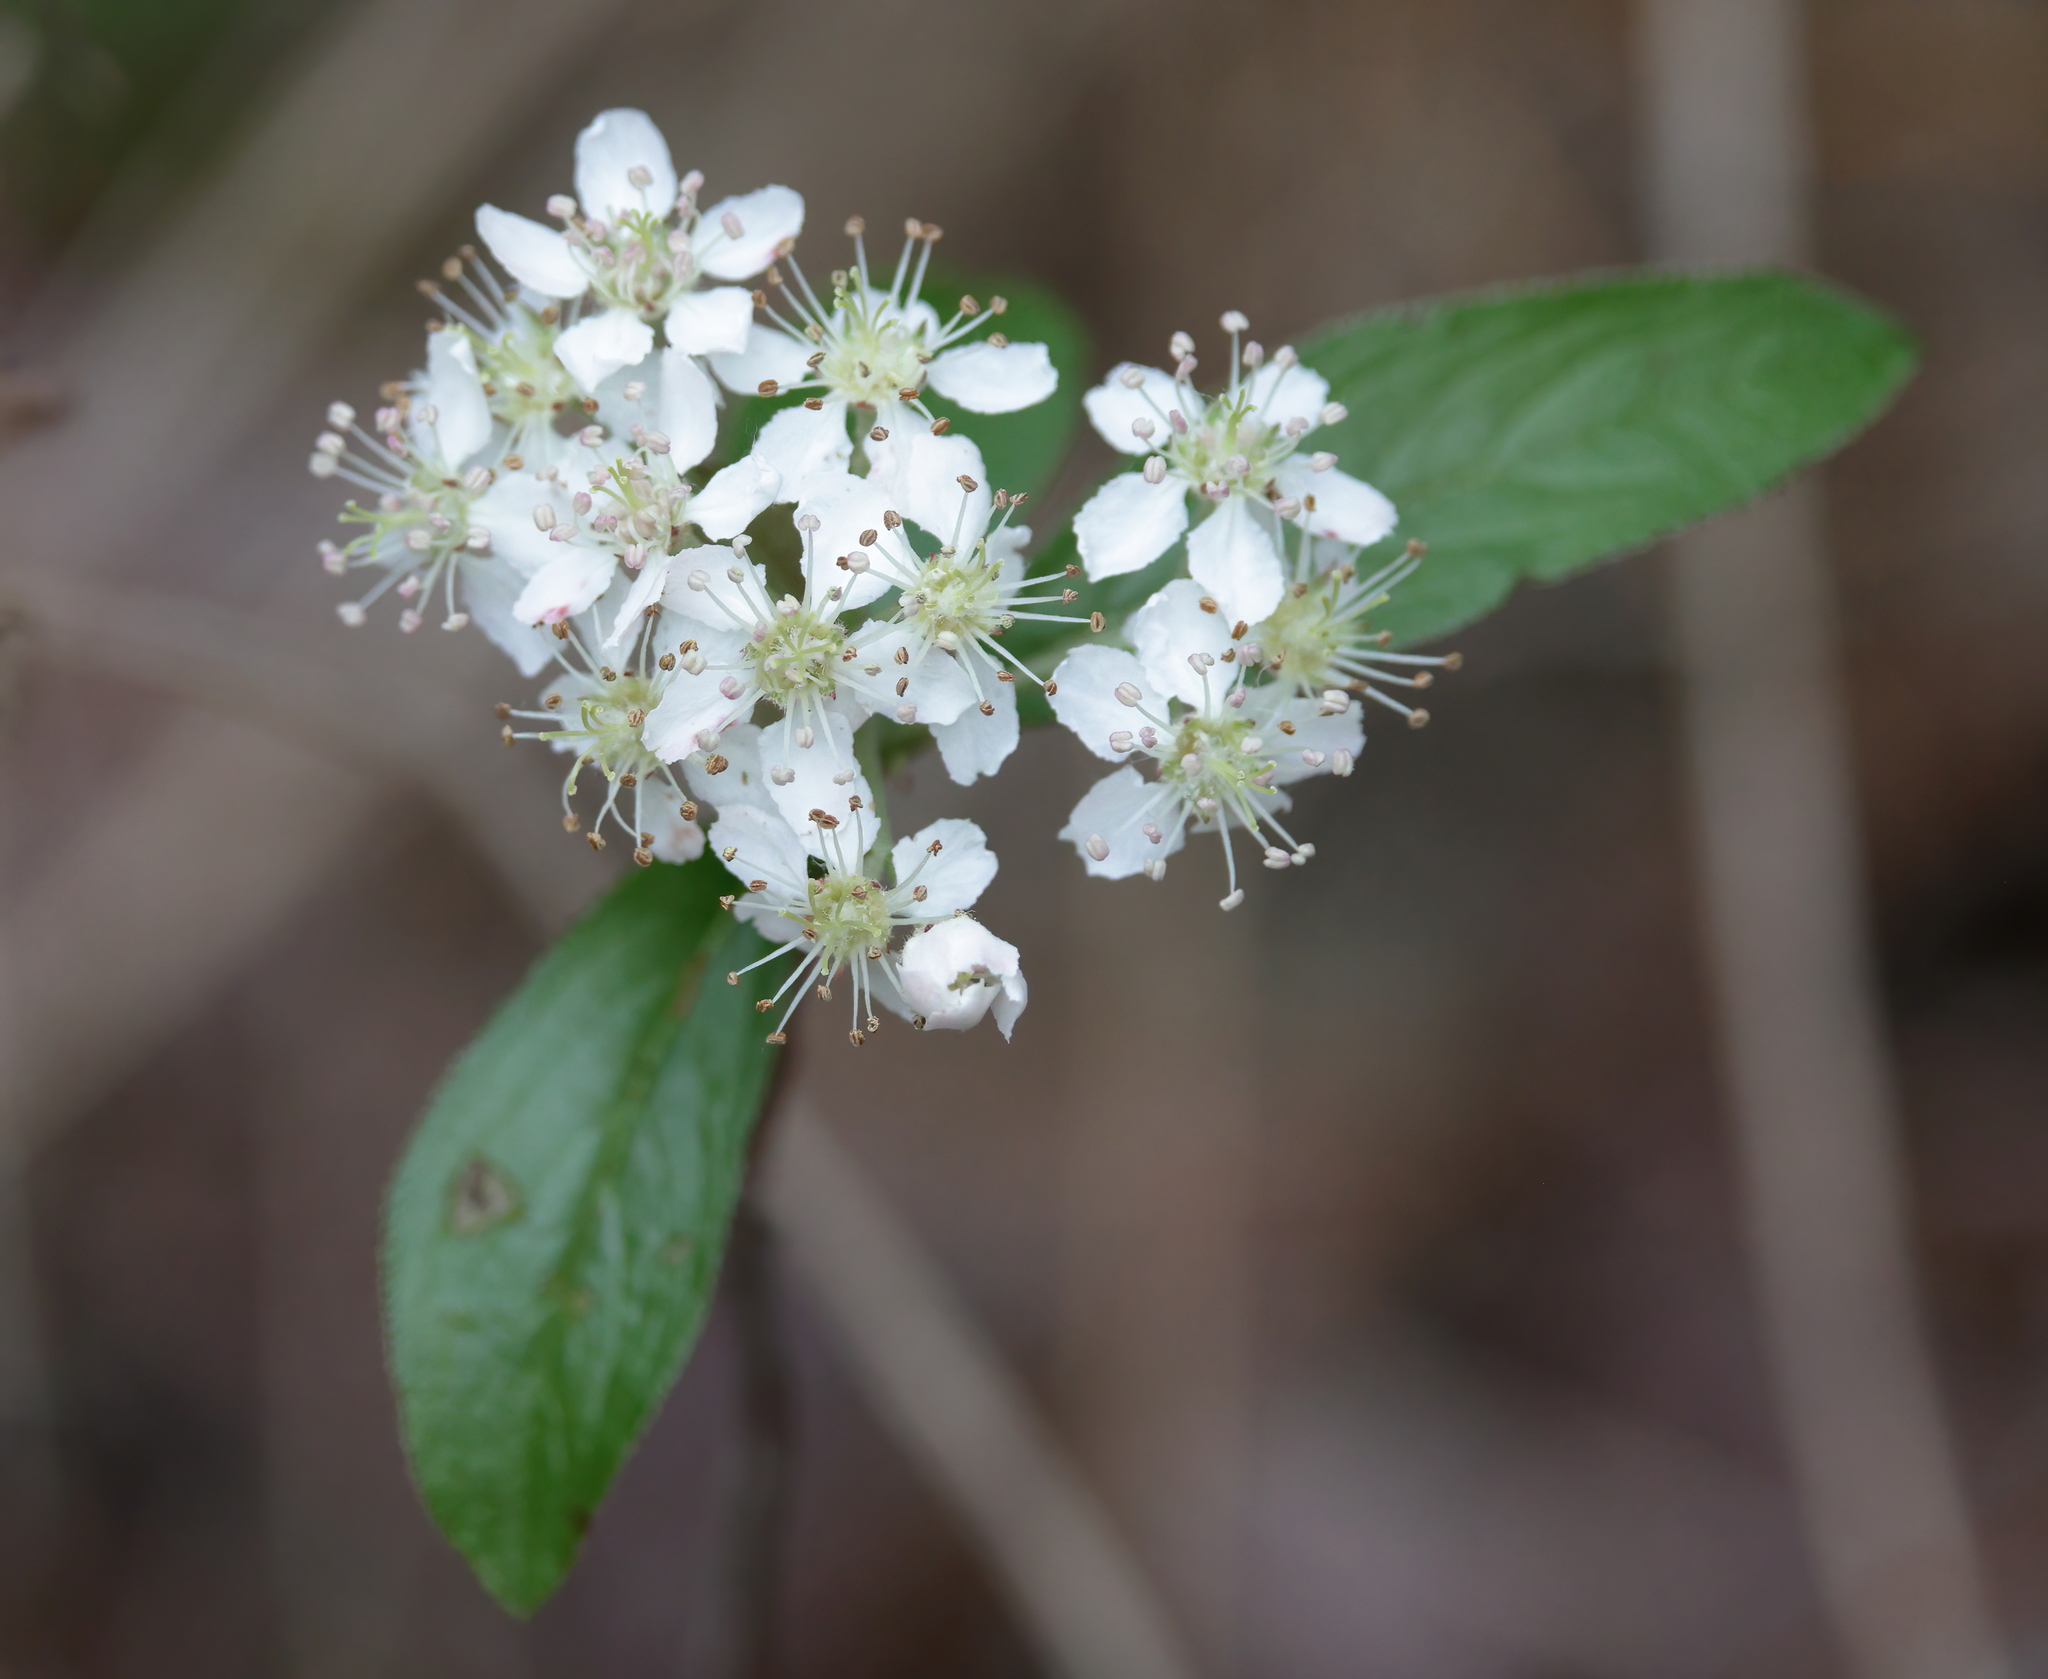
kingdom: Plantae
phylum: Tracheophyta
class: Magnoliopsida
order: Rosales
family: Rosaceae
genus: Aronia
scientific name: Aronia arbutifolia
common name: Red chokeberry
